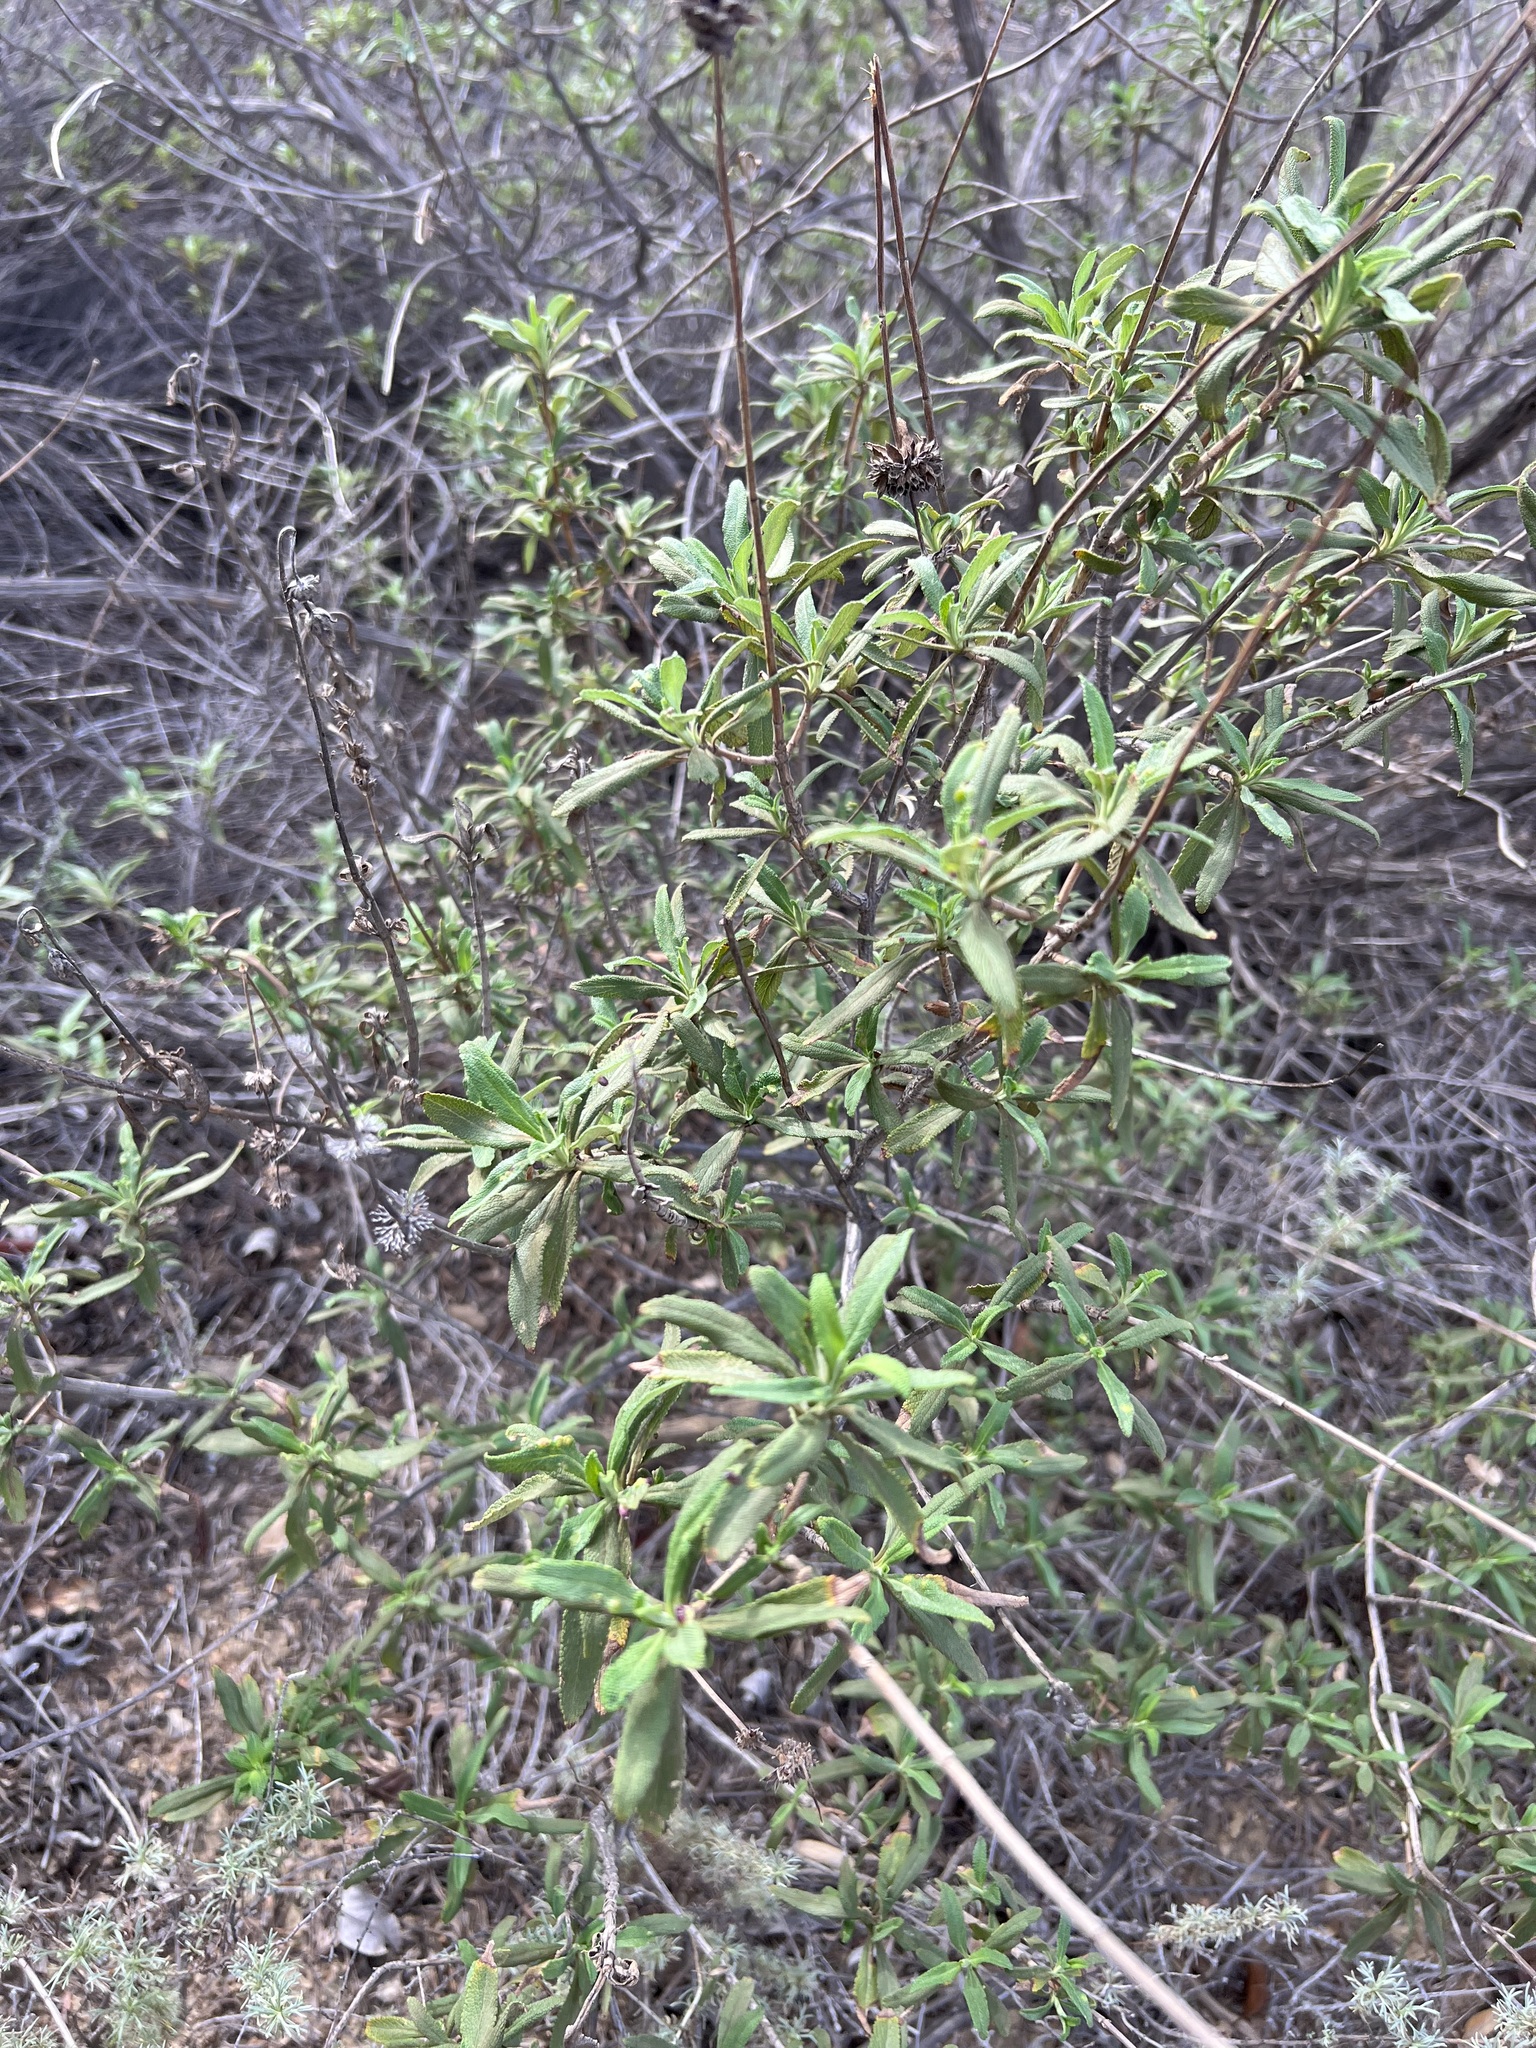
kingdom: Plantae
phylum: Tracheophyta
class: Magnoliopsida
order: Lamiales
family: Lamiaceae
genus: Salvia
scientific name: Salvia mellifera
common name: Black sage
